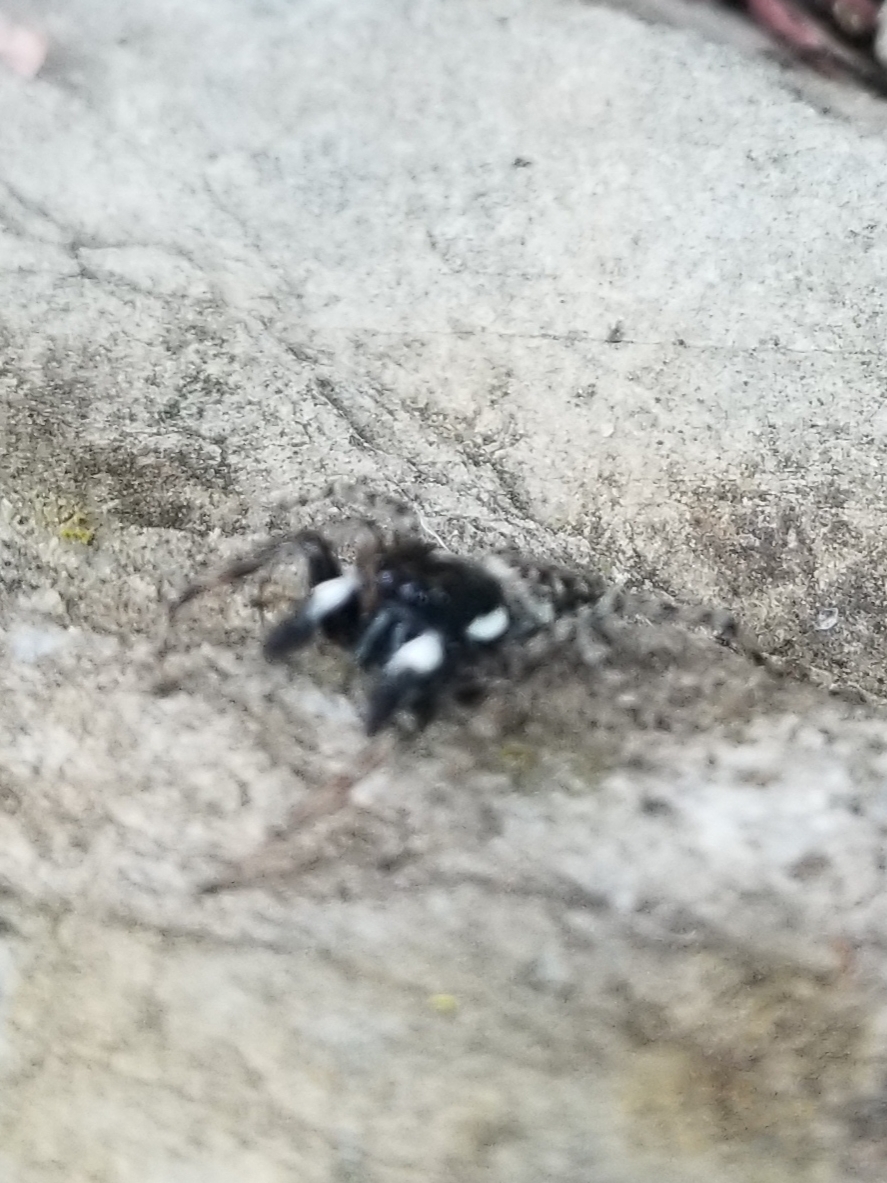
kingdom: Animalia
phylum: Arthropoda
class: Arachnida
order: Araneae
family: Salticidae
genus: Menemerus
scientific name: Menemerus semilimbatus
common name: Jumping spider
